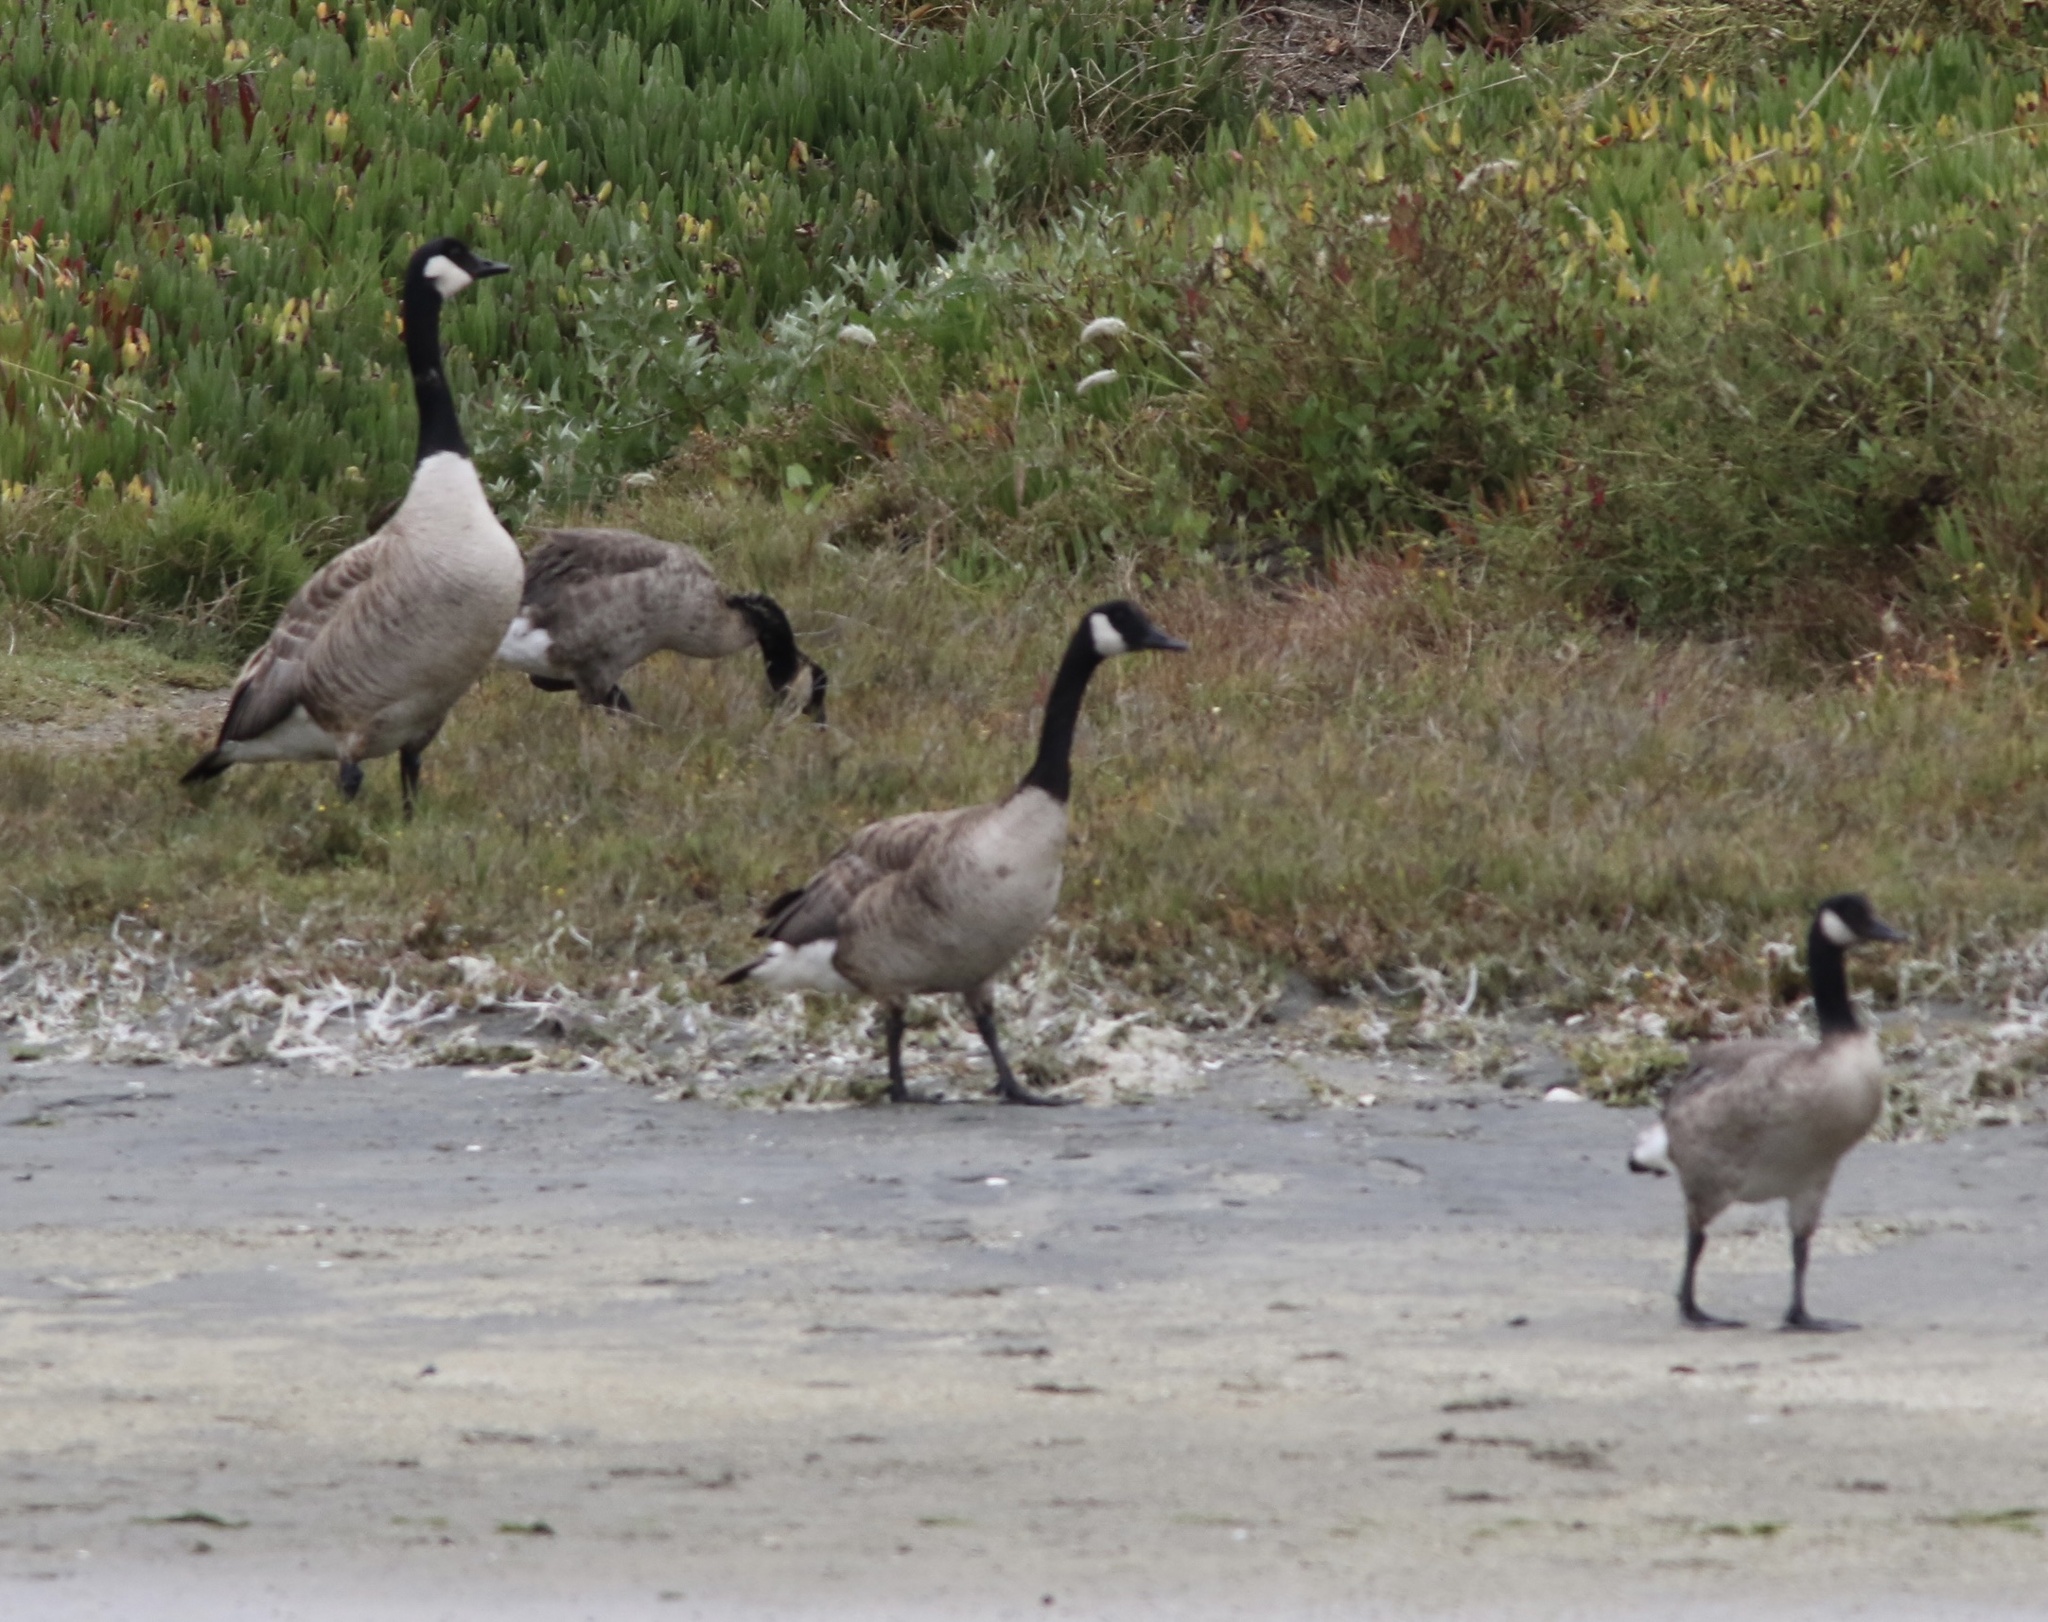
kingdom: Animalia
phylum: Chordata
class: Aves
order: Anseriformes
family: Anatidae
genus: Branta
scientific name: Branta canadensis
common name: Canada goose
